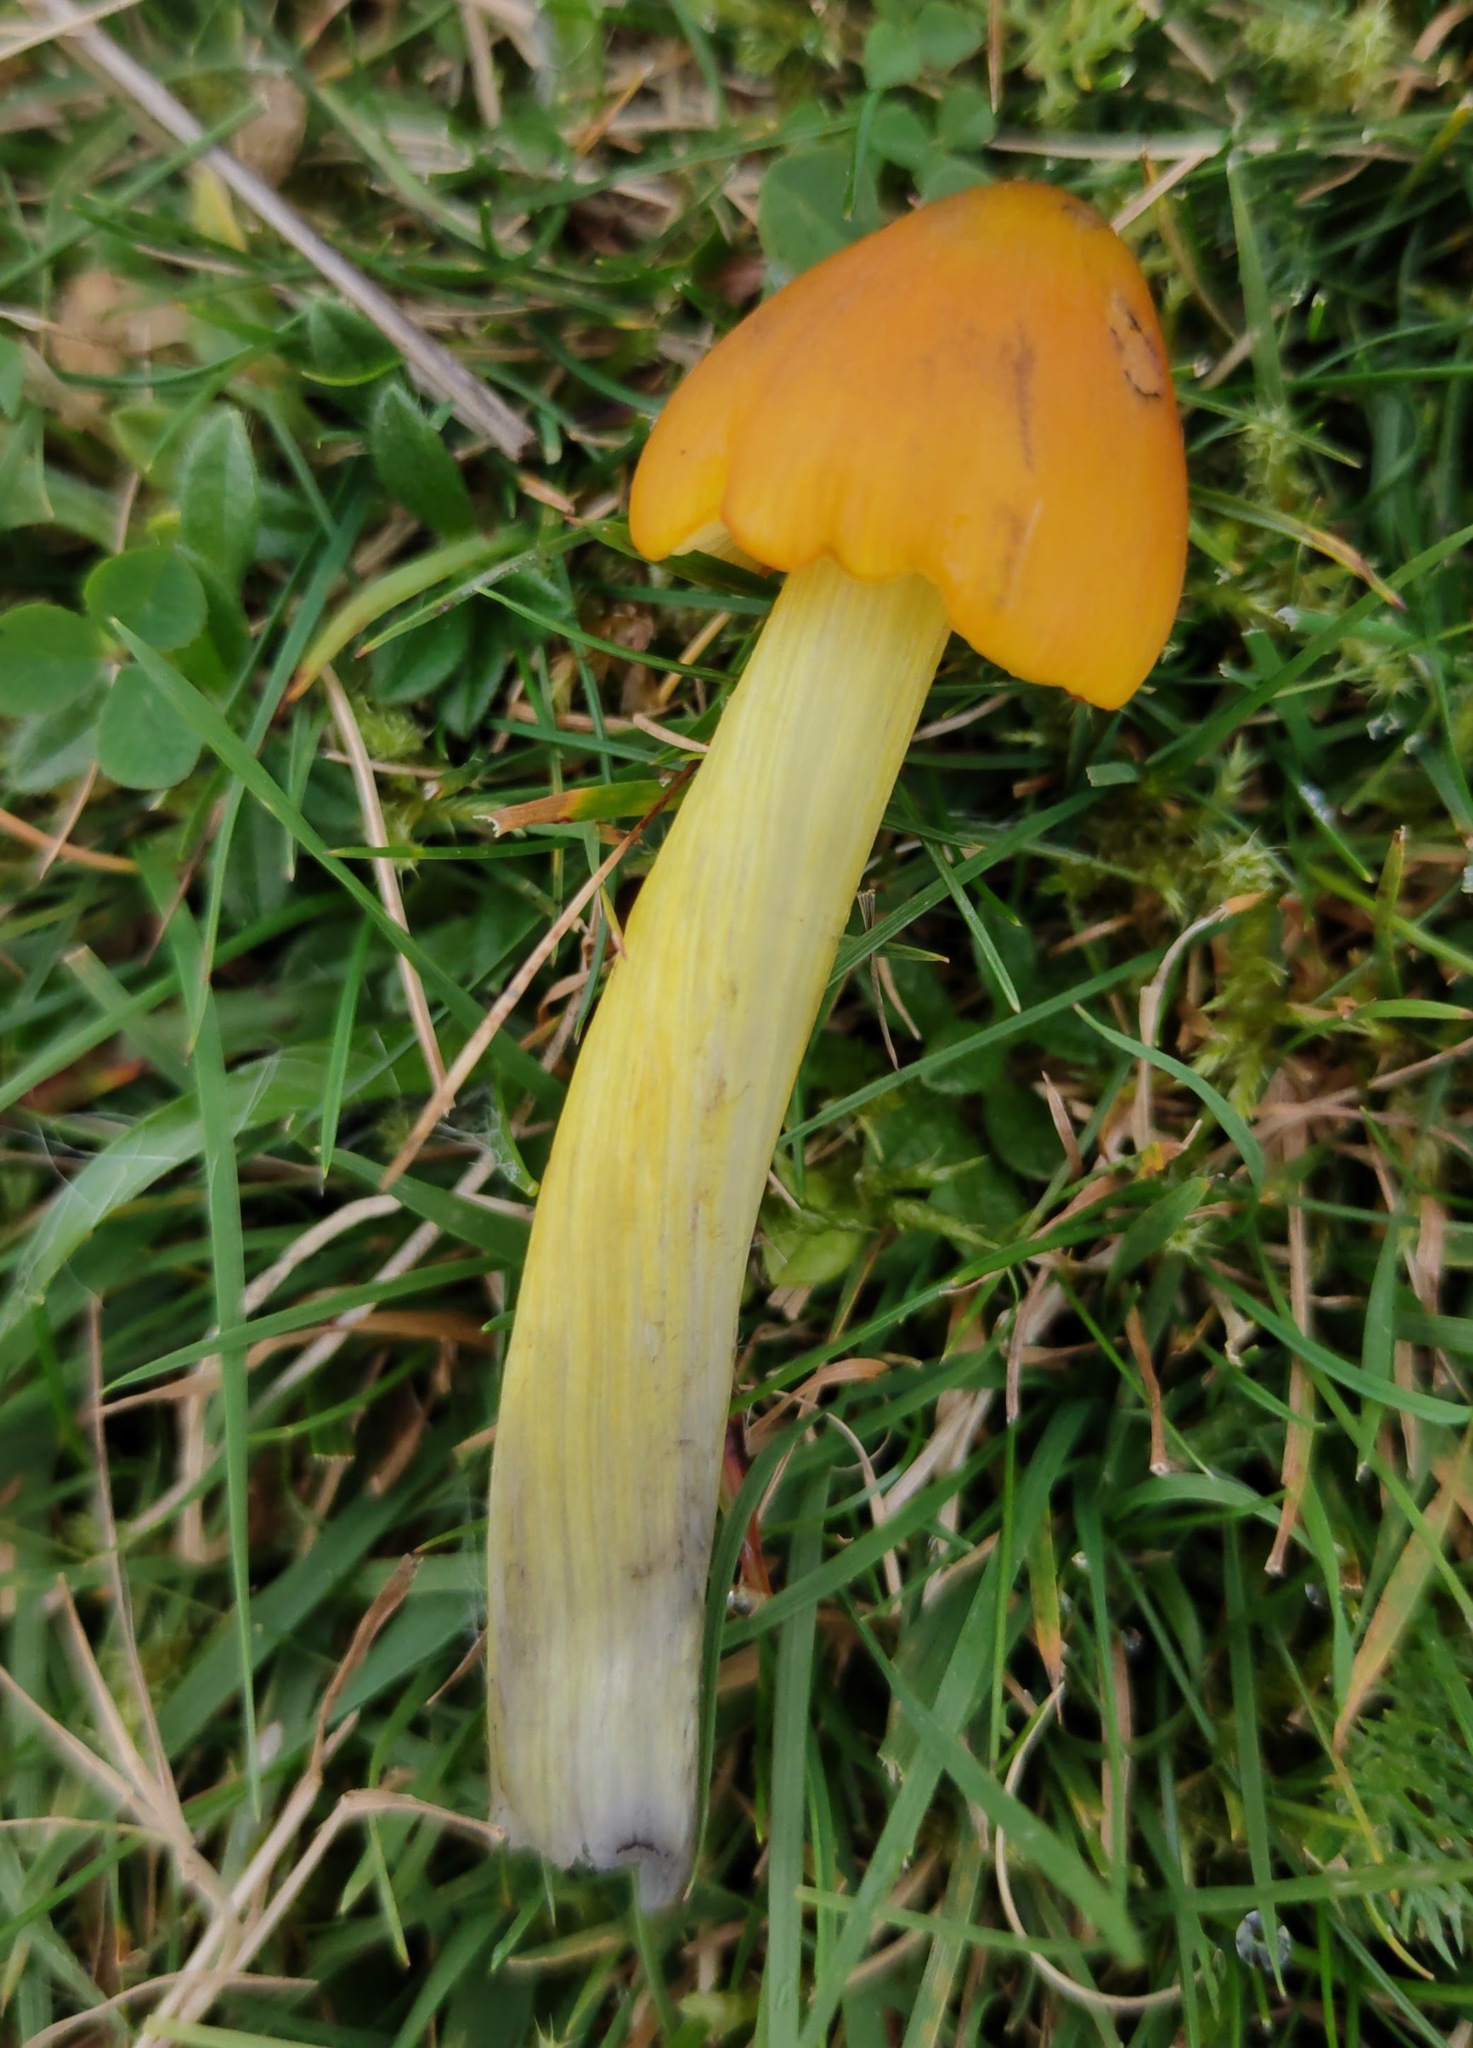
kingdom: Fungi
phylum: Basidiomycota
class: Agaricomycetes
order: Agaricales
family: Hygrophoraceae
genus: Hygrocybe
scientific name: Hygrocybe conica
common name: Blackening wax-cap
